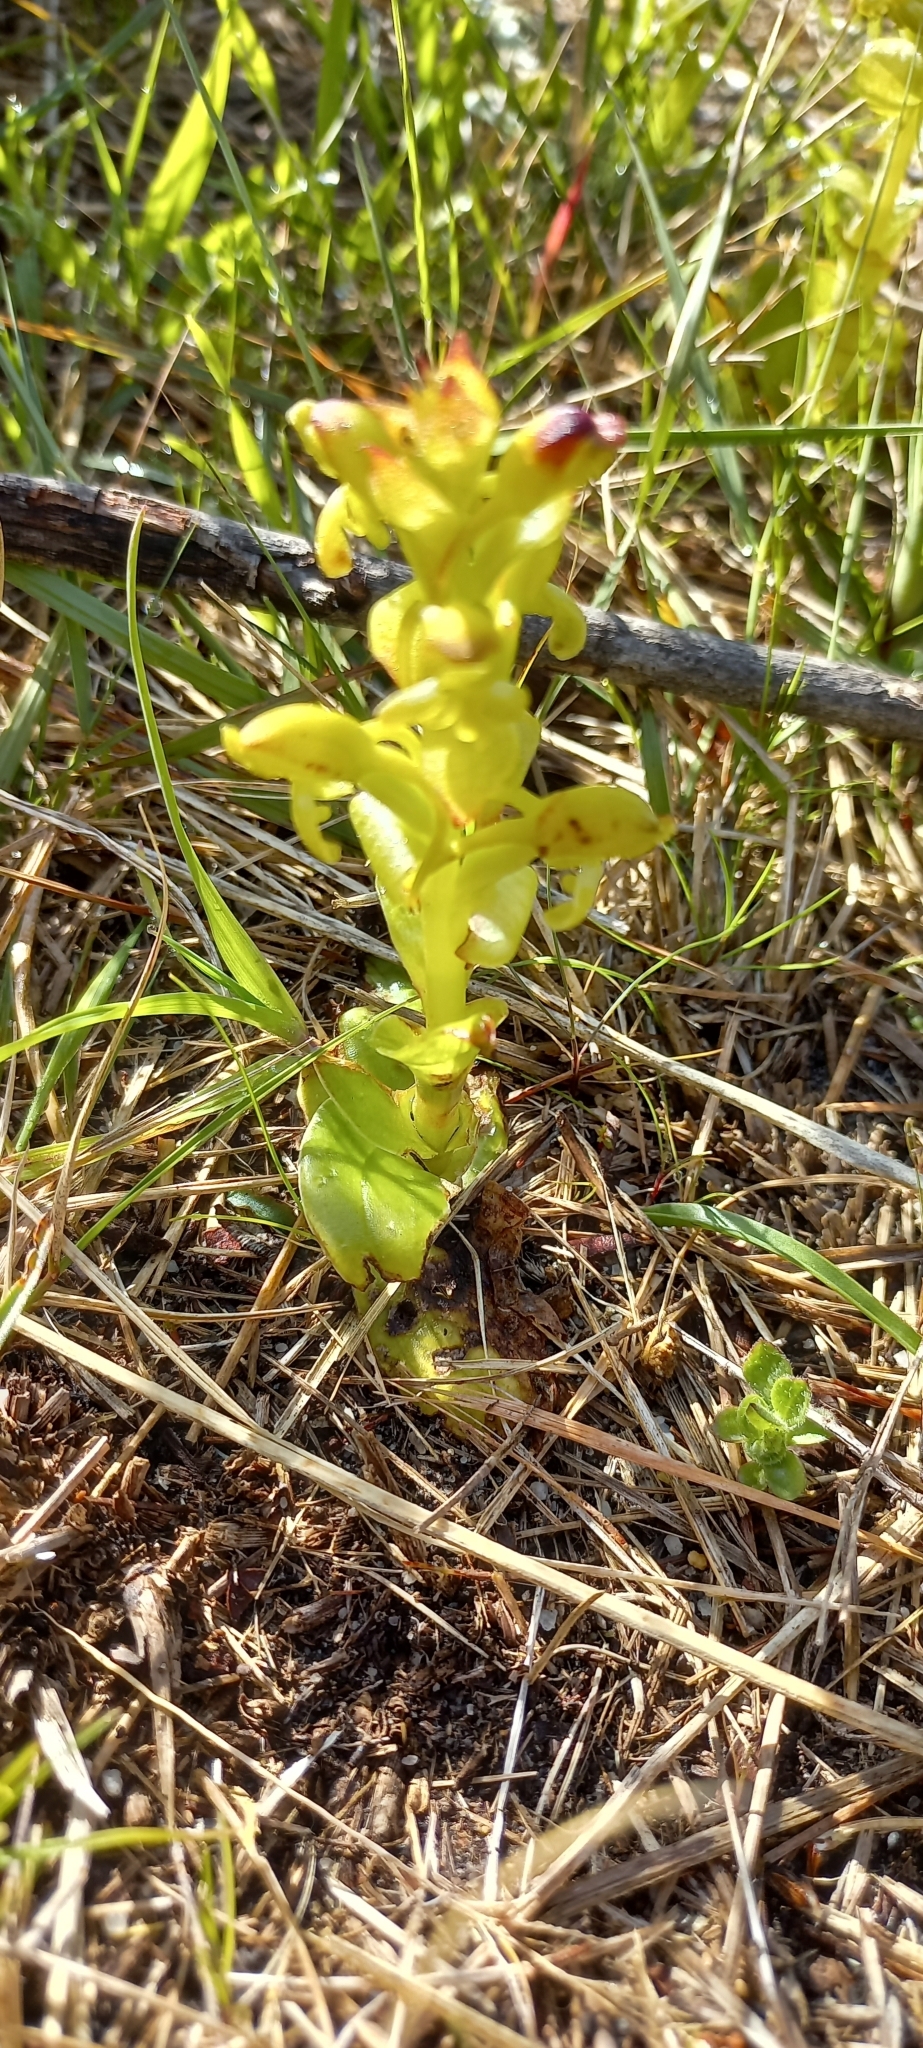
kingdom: Plantae
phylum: Tracheophyta
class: Liliopsida
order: Asparagales
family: Orchidaceae
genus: Satyrium
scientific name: Satyrium odorum
